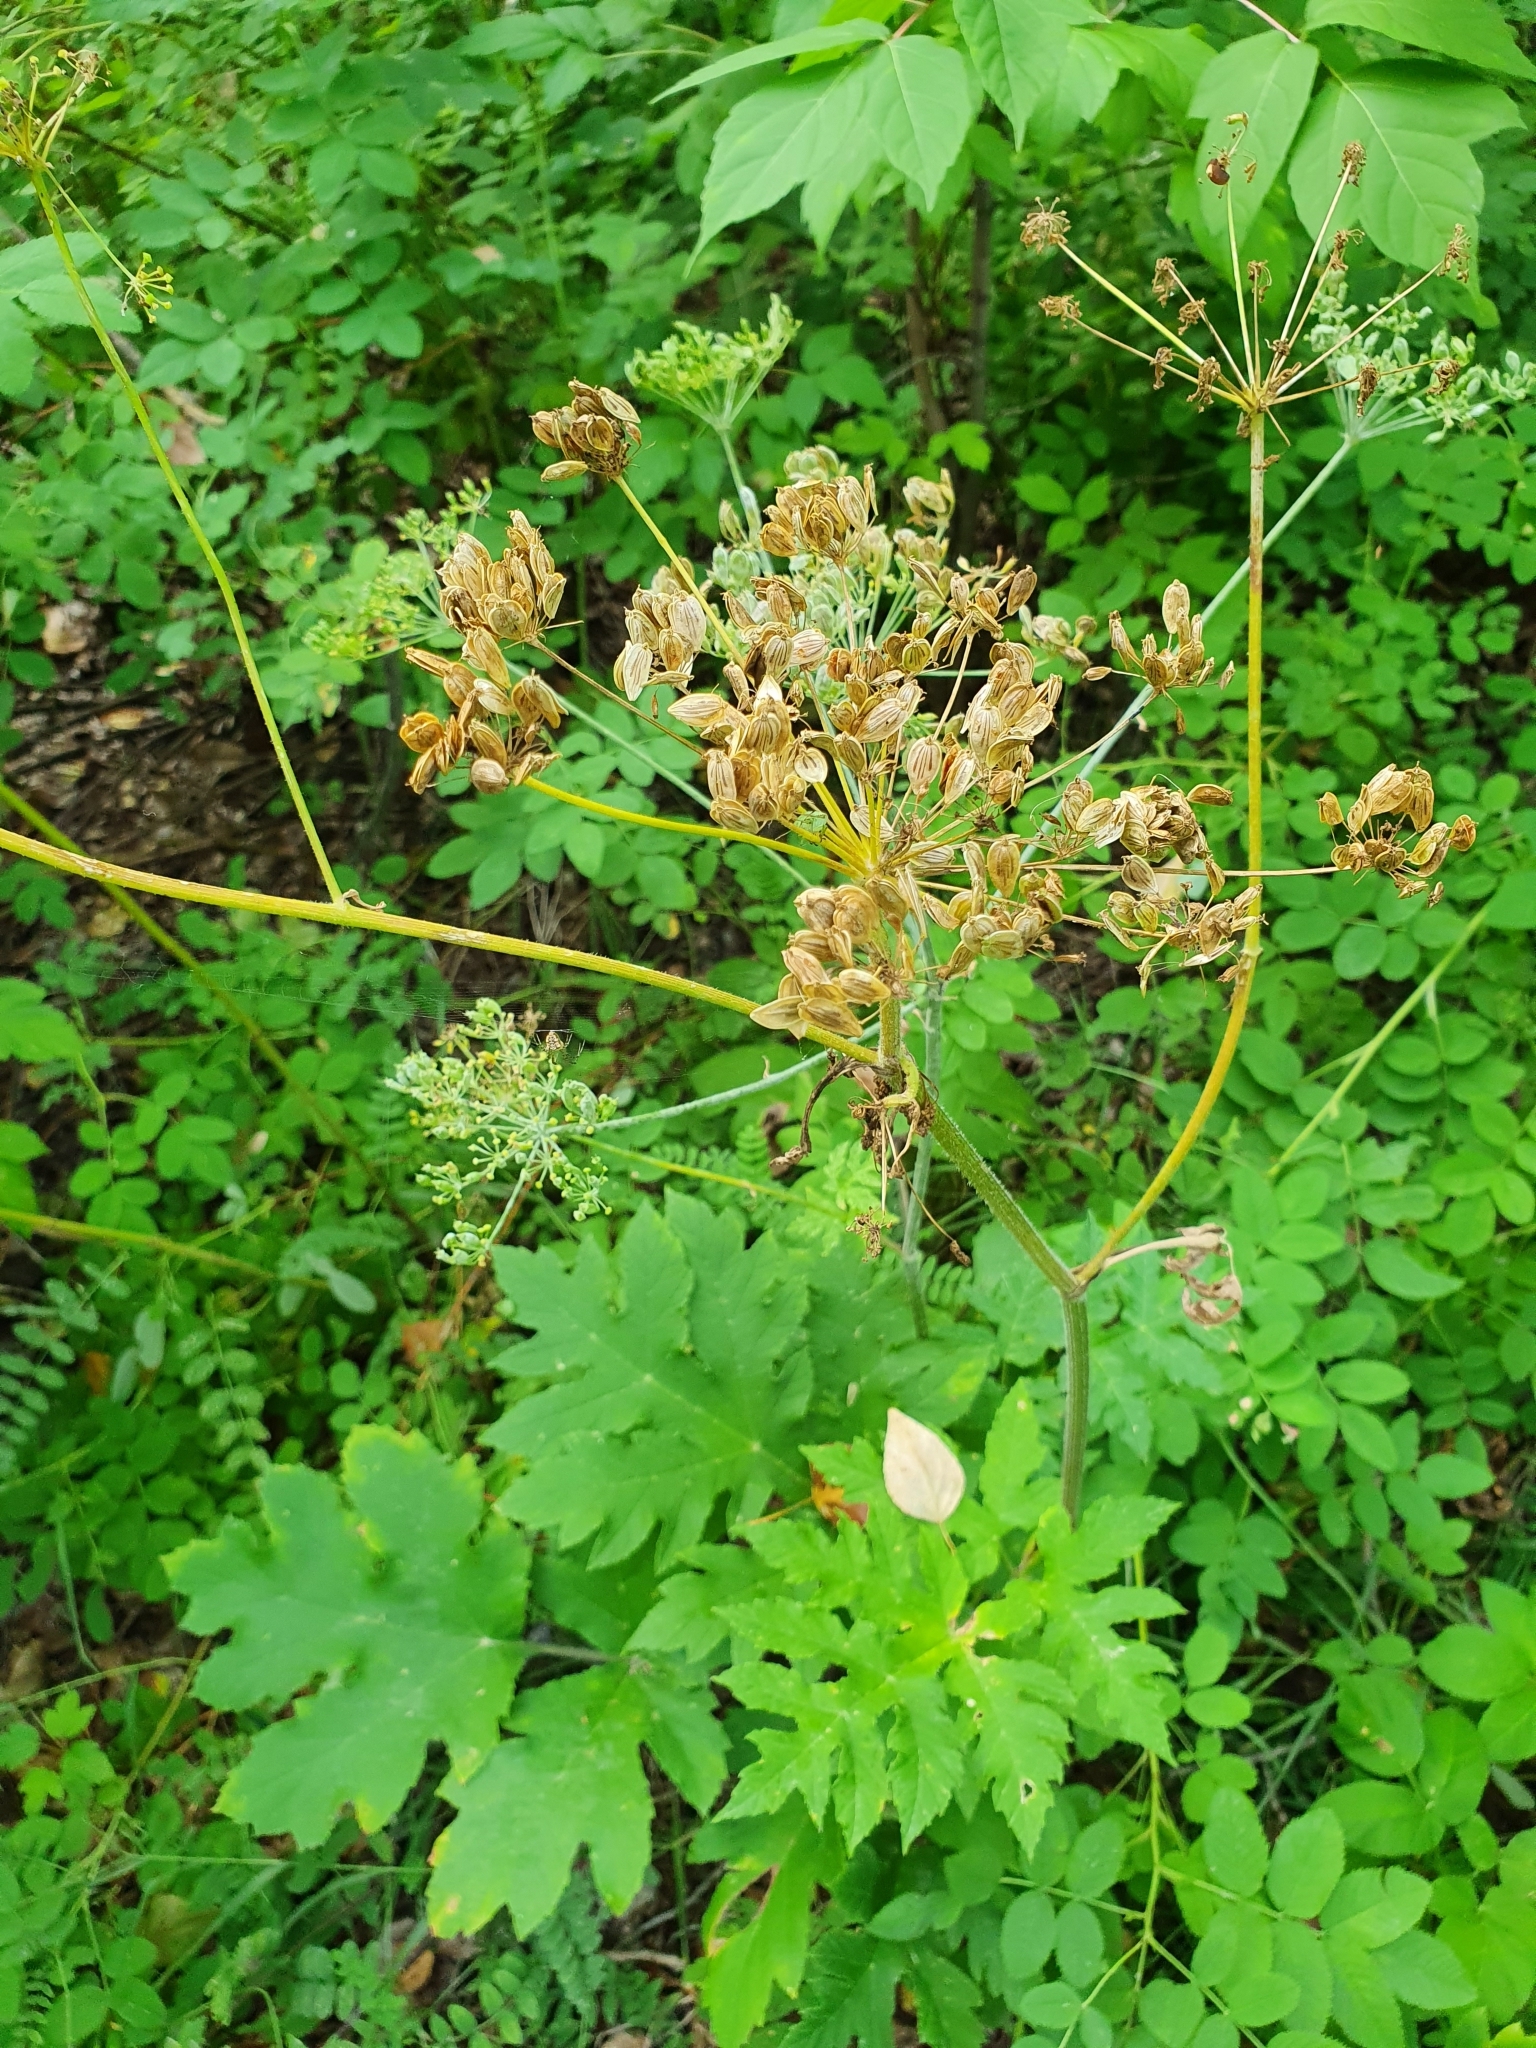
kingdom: Plantae
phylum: Tracheophyta
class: Magnoliopsida
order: Apiales
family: Apiaceae
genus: Heracleum
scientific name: Heracleum sphondylium
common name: Hogweed
